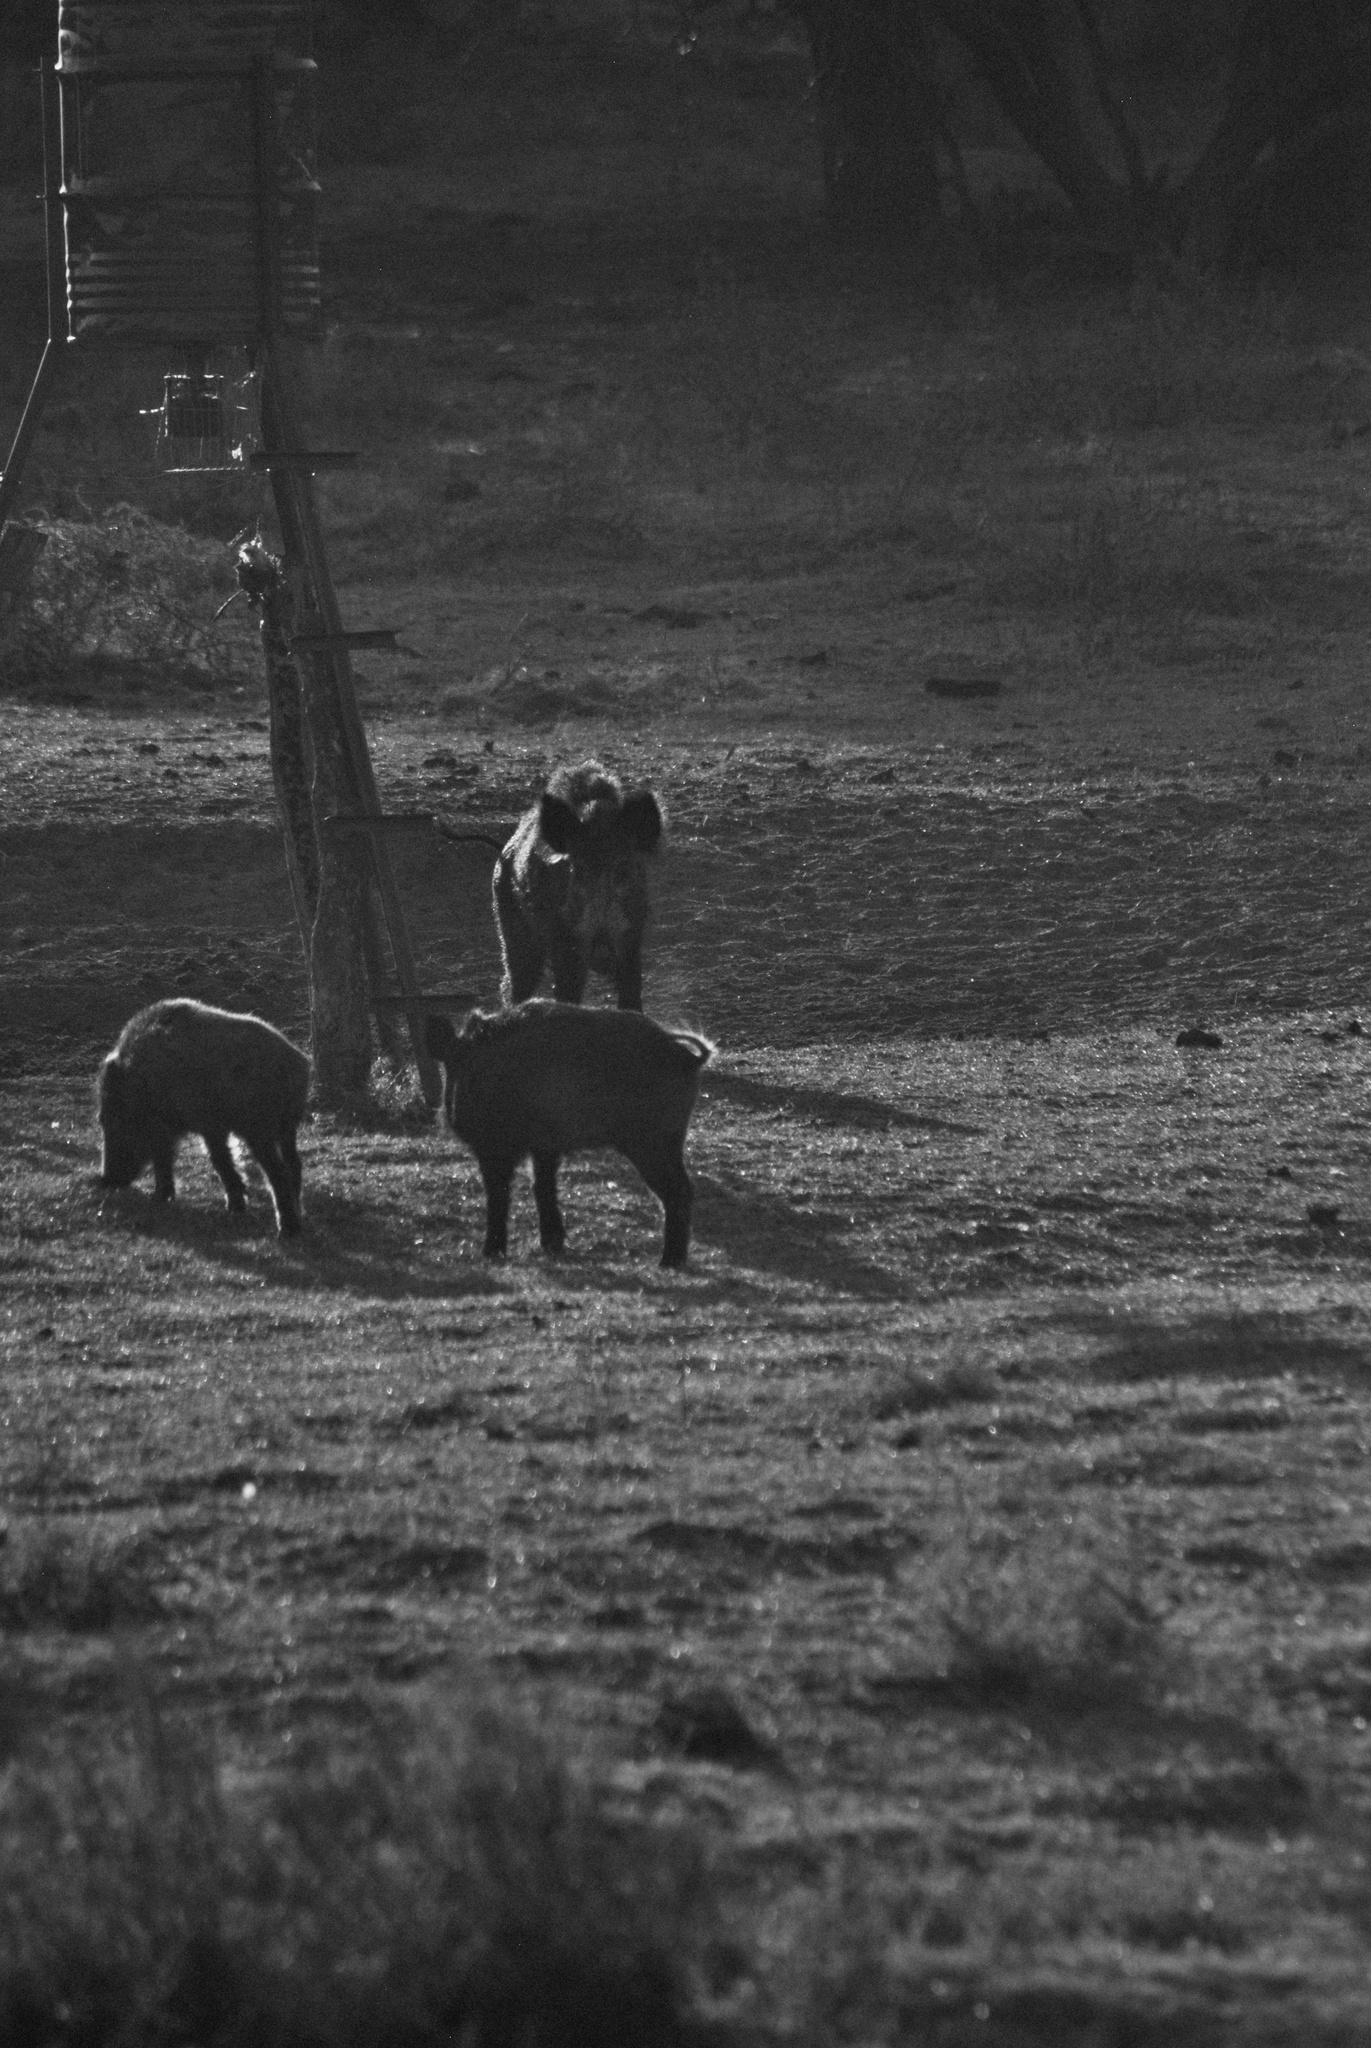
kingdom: Animalia
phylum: Chordata
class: Mammalia
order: Artiodactyla
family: Suidae
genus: Sus
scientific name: Sus scrofa
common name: Wild boar
